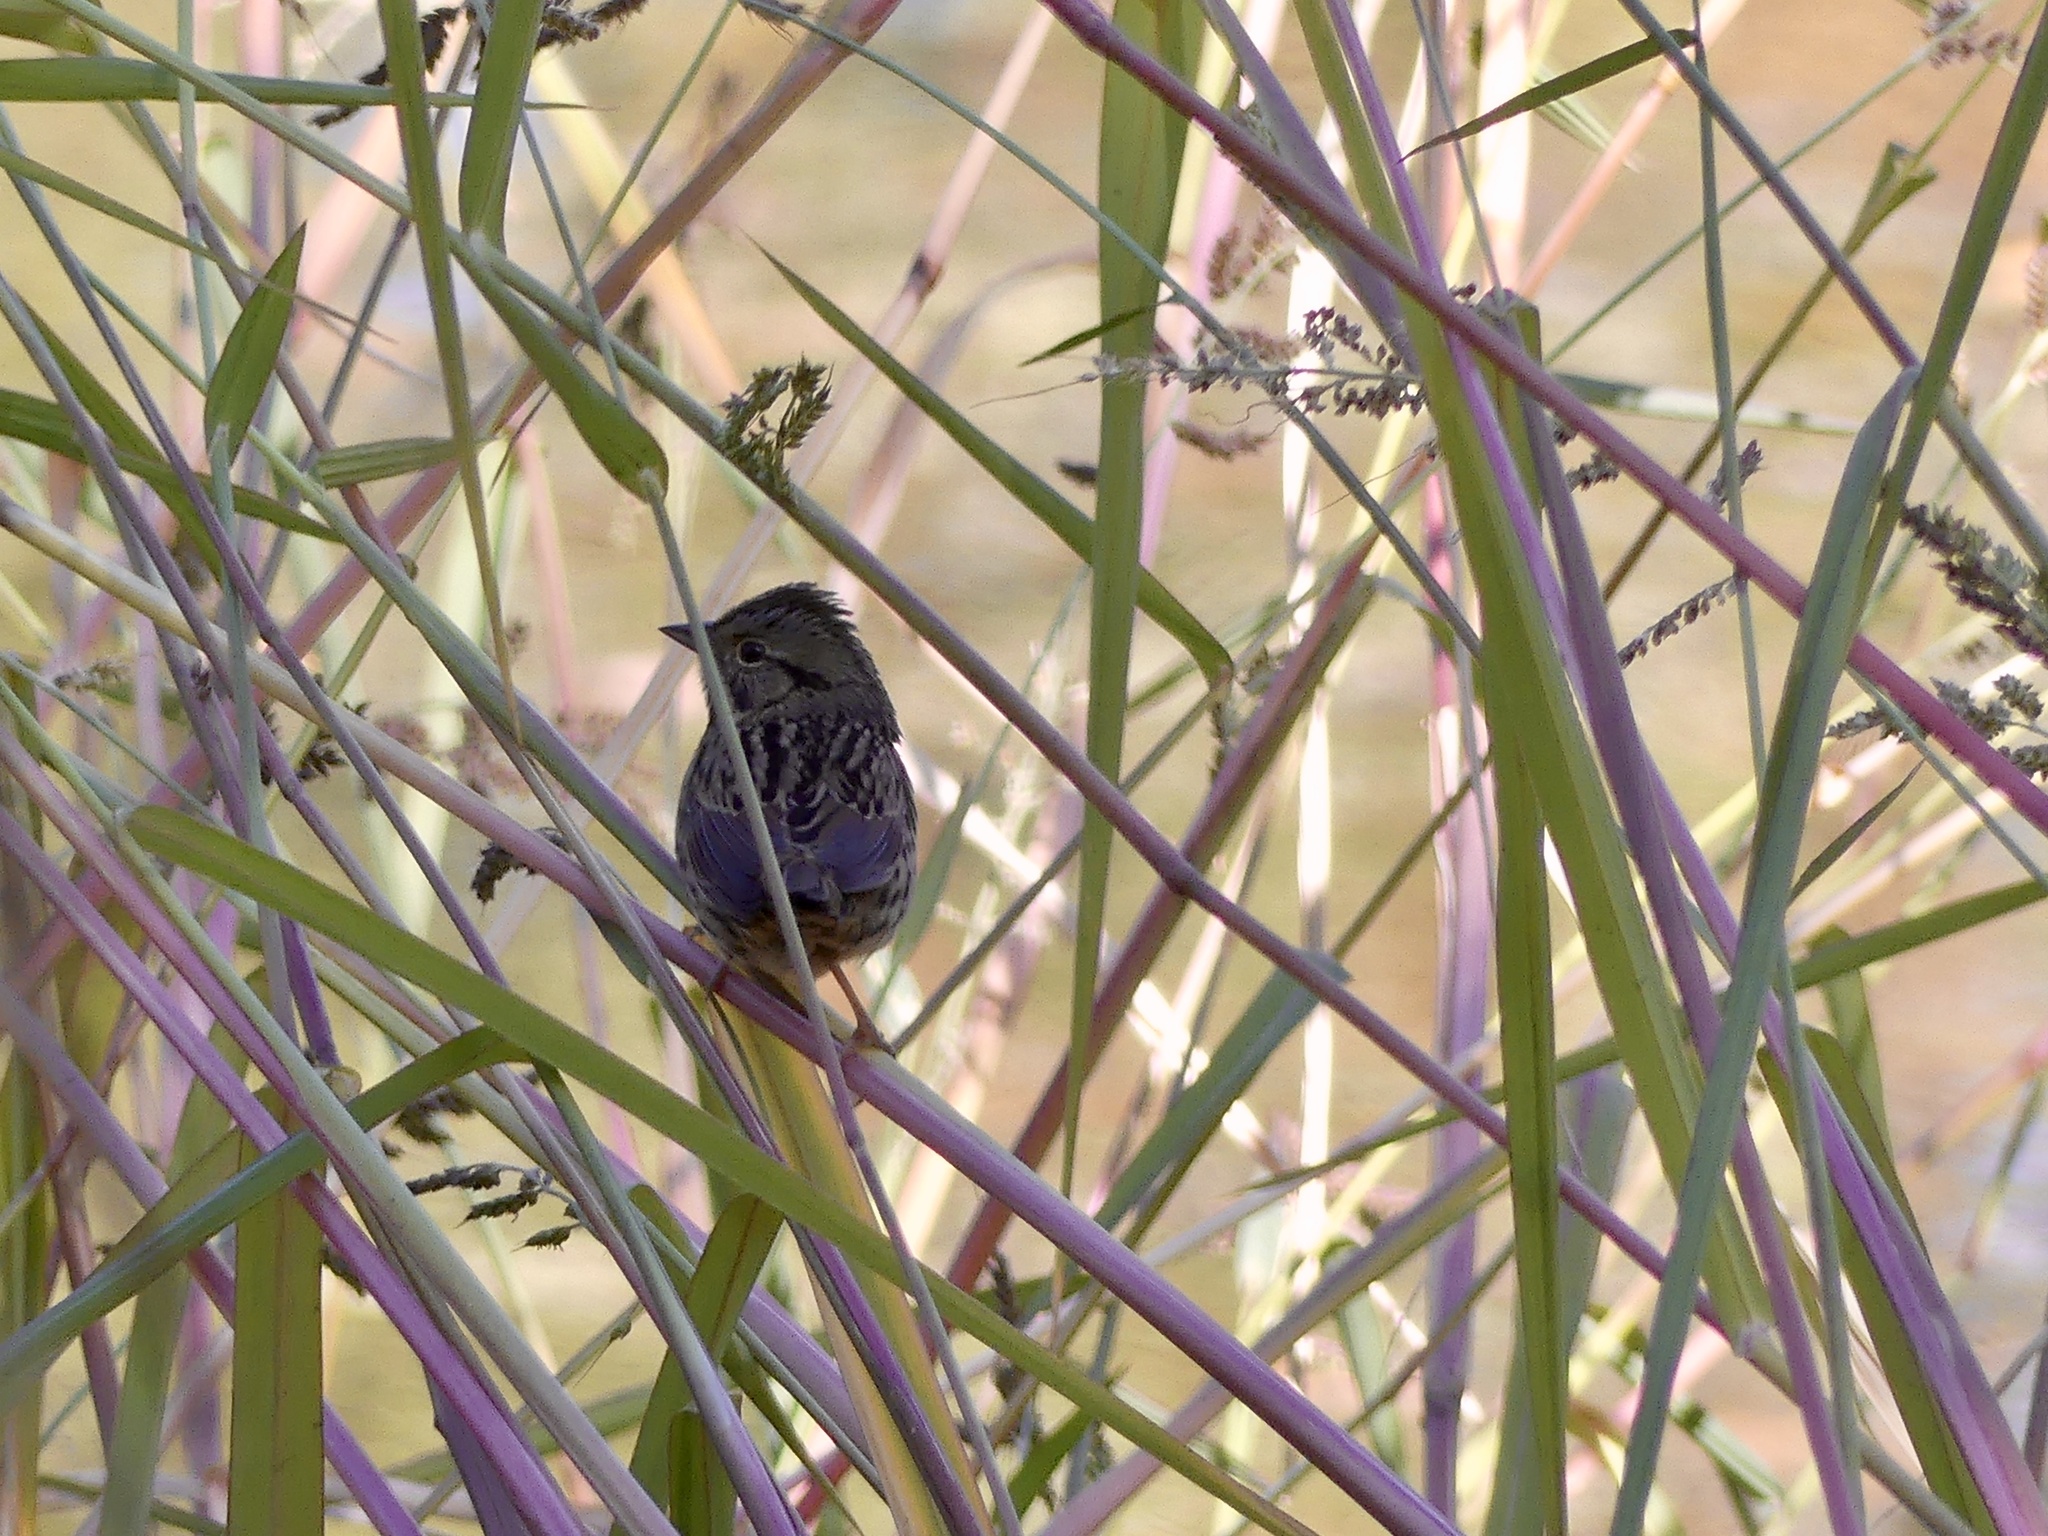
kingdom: Animalia
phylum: Chordata
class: Aves
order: Passeriformes
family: Passerellidae
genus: Melospiza
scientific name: Melospiza lincolnii
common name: Lincoln's sparrow
